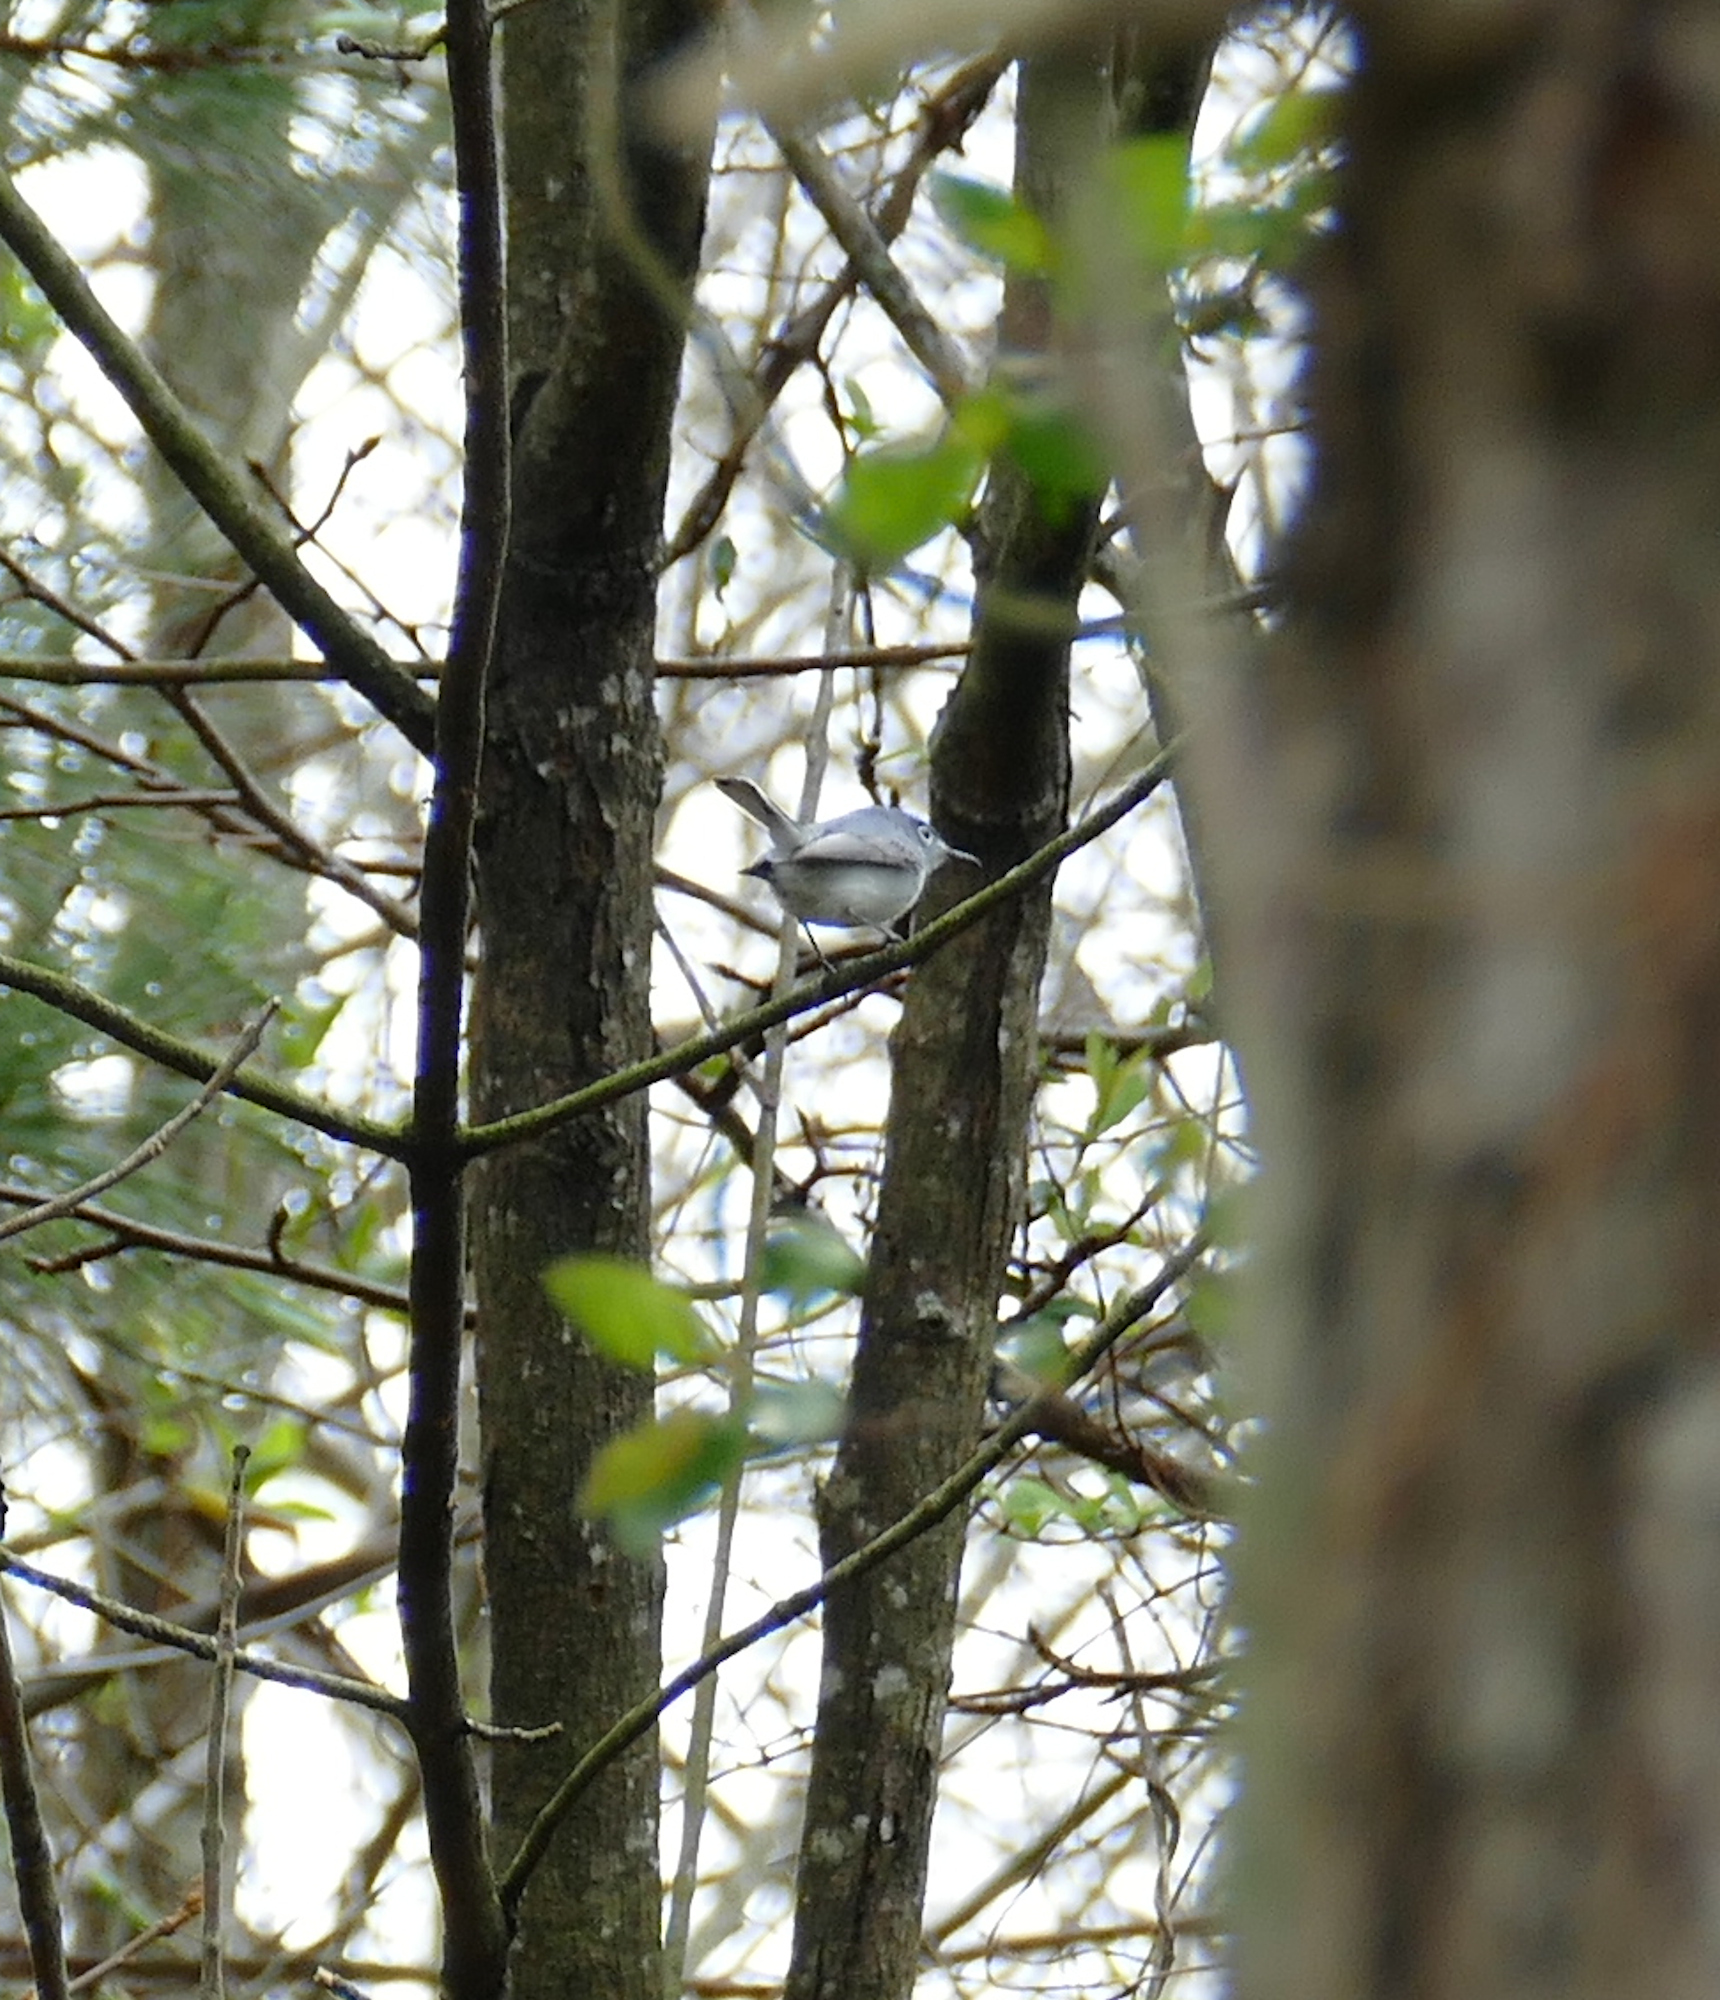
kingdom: Animalia
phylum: Chordata
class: Aves
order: Passeriformes
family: Polioptilidae
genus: Polioptila
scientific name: Polioptila caerulea
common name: Blue-gray gnatcatcher
